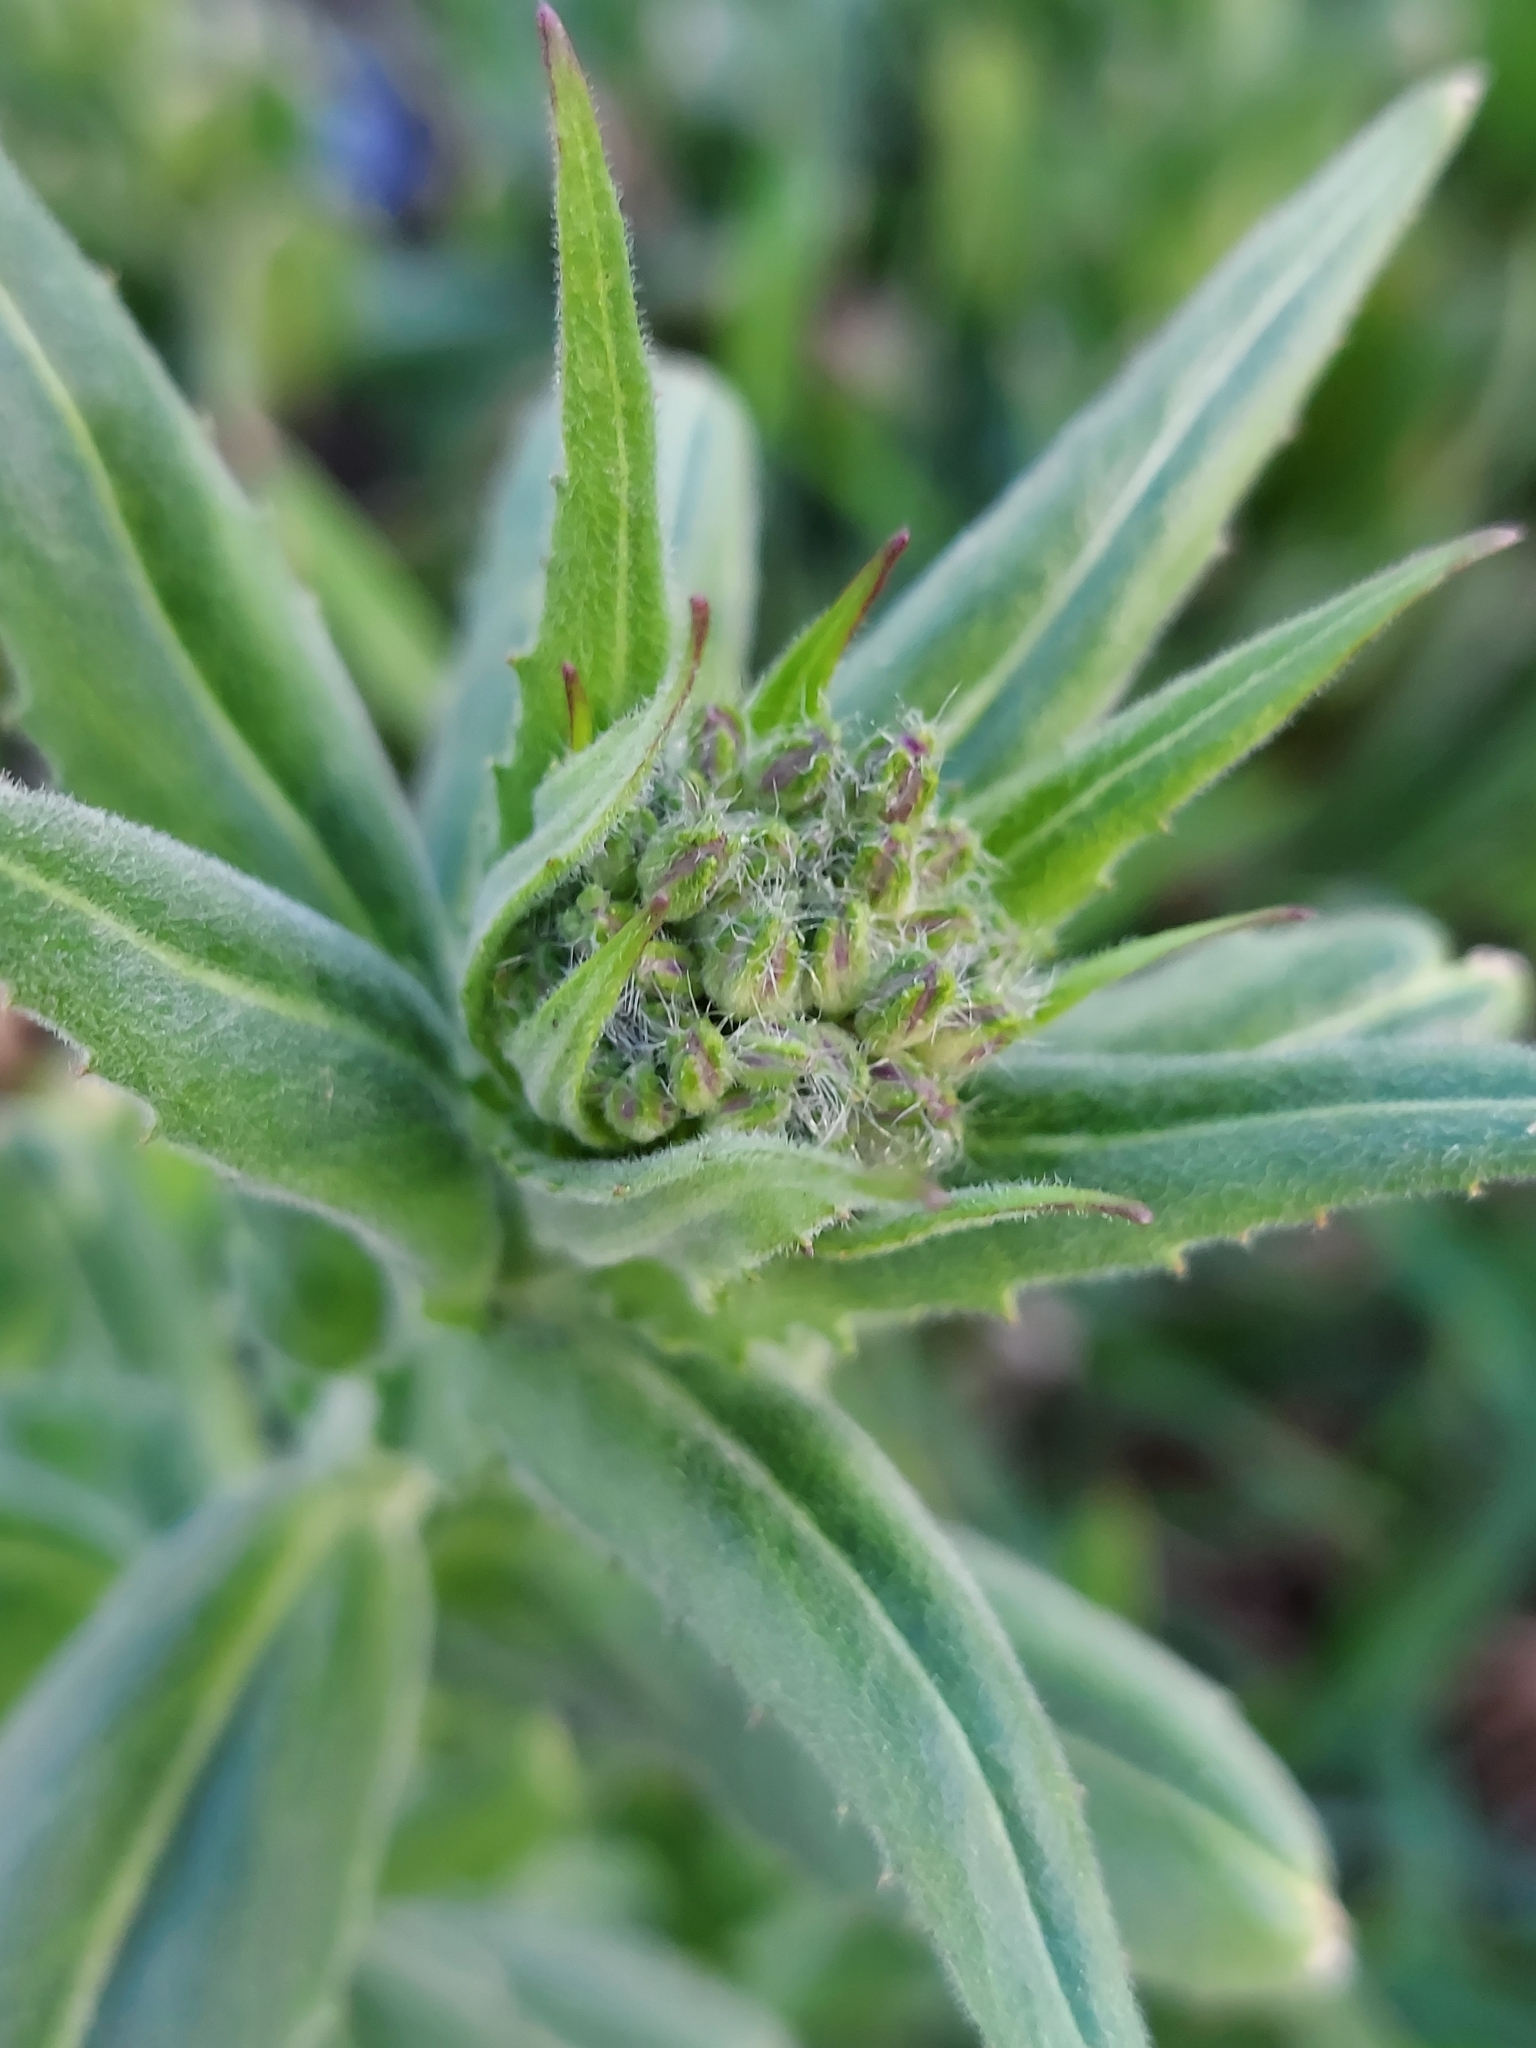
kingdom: Plantae
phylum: Tracheophyta
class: Magnoliopsida
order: Brassicales
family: Brassicaceae
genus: Hesperis
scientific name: Hesperis matronalis
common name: Dame's-violet
